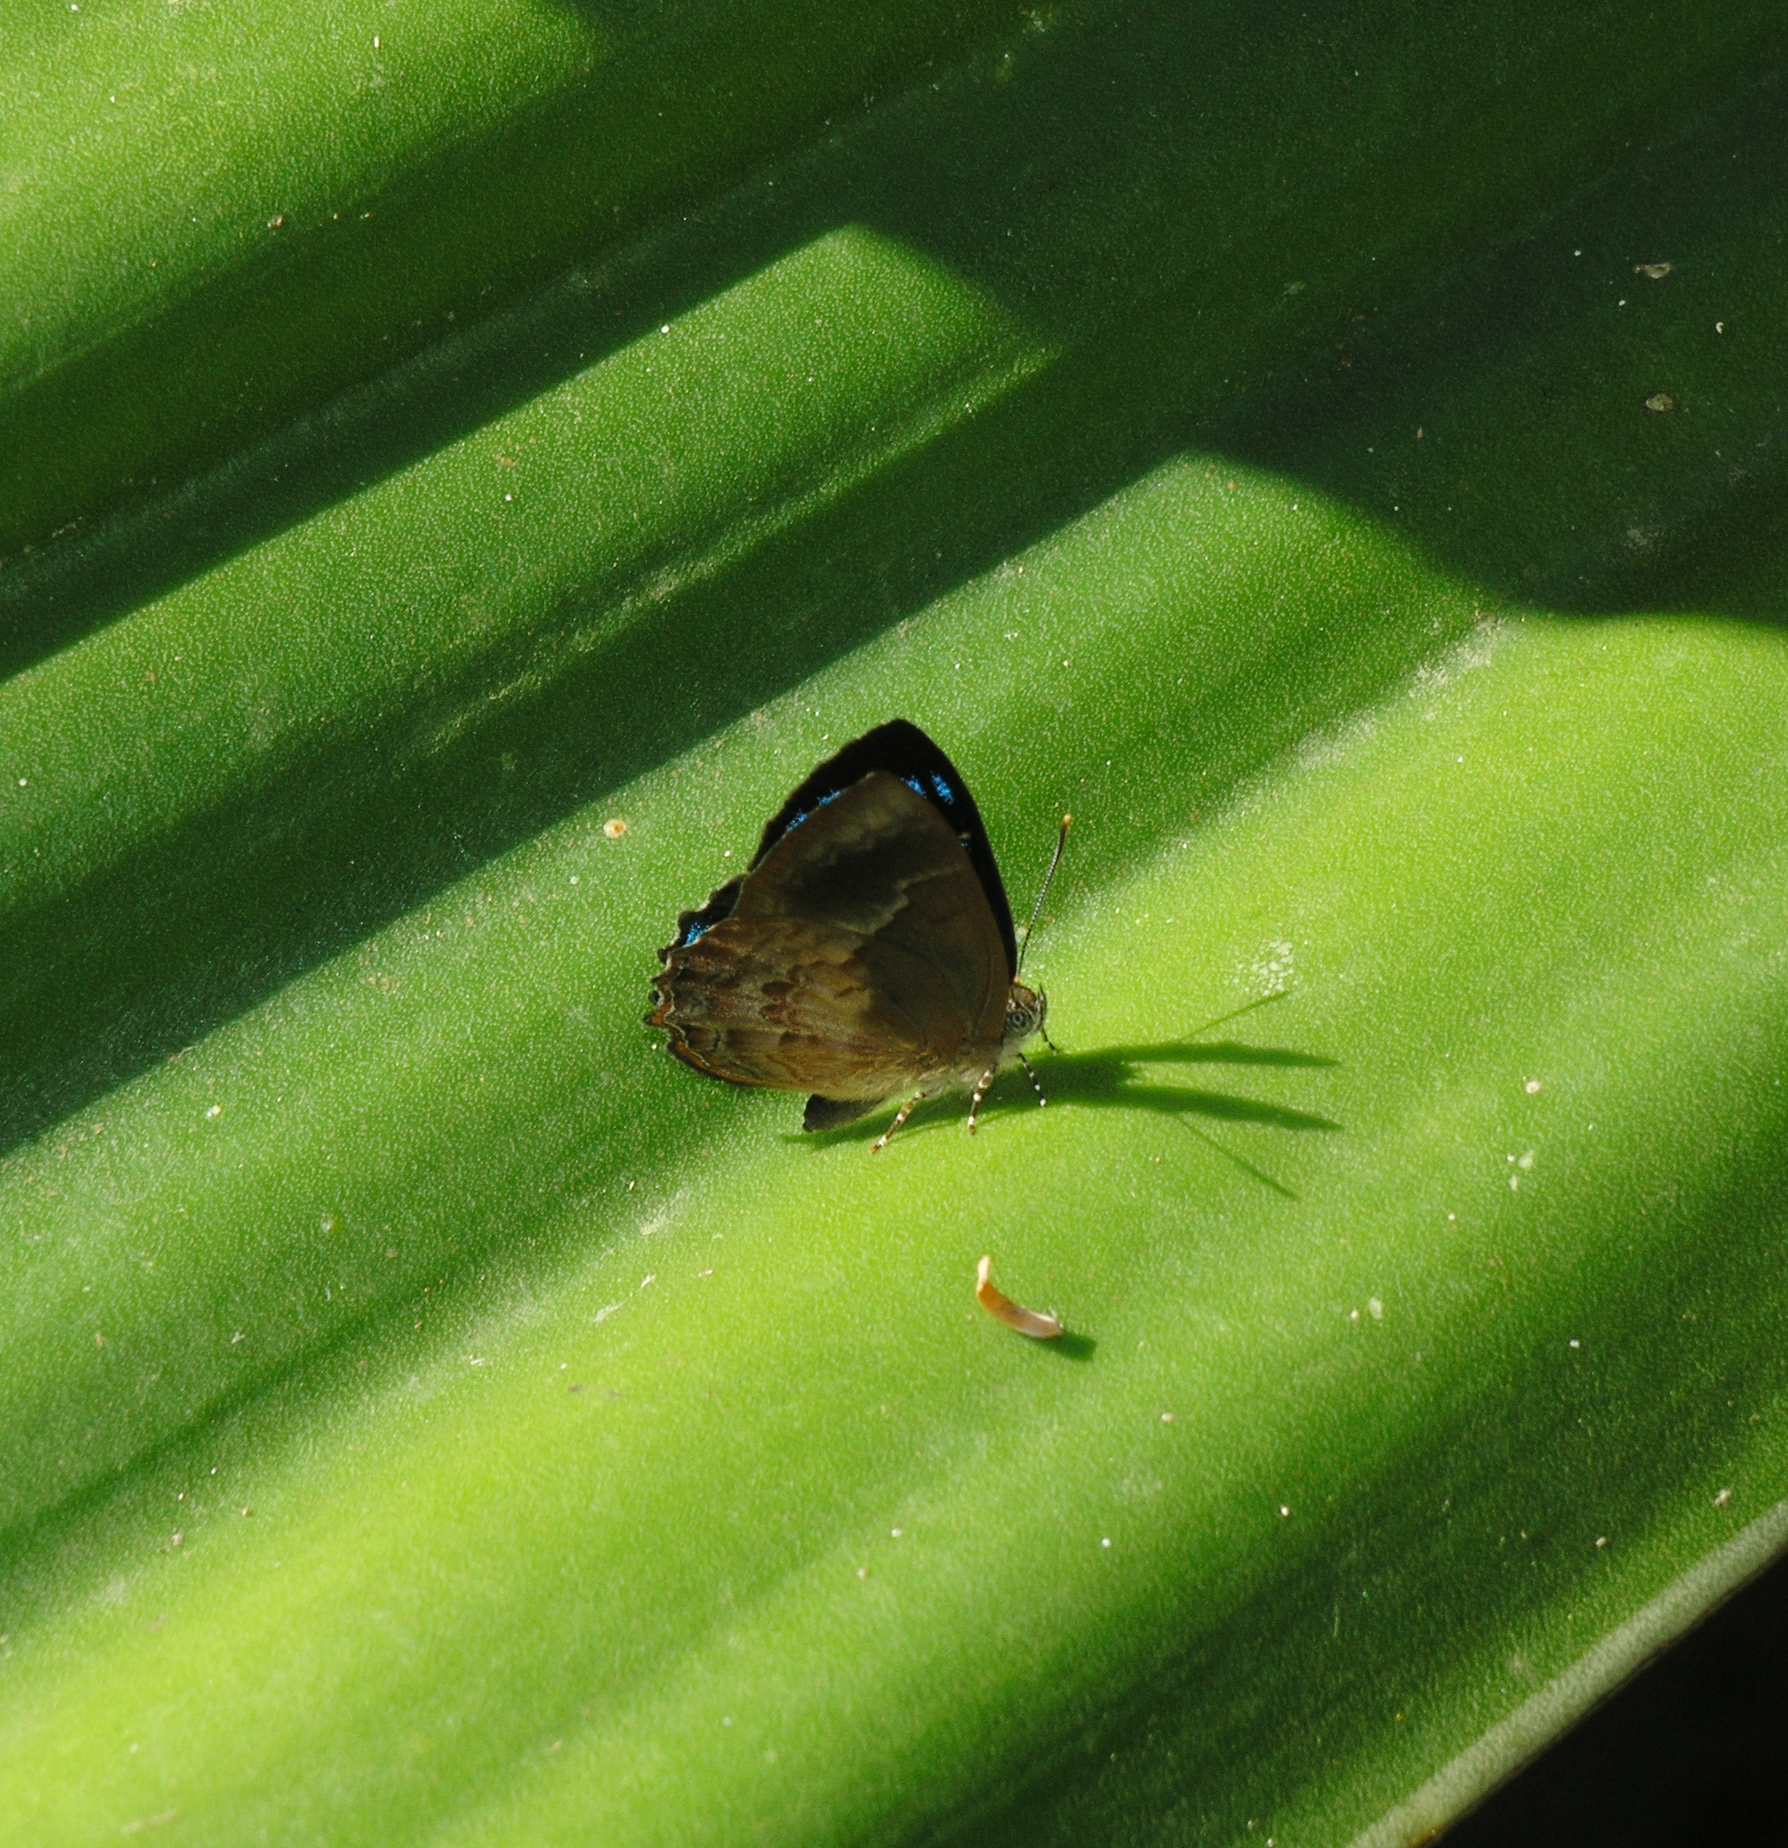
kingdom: Animalia
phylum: Arthropoda
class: Insecta
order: Lepidoptera
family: Lycaenidae
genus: Simiskina
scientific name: Simiskina
